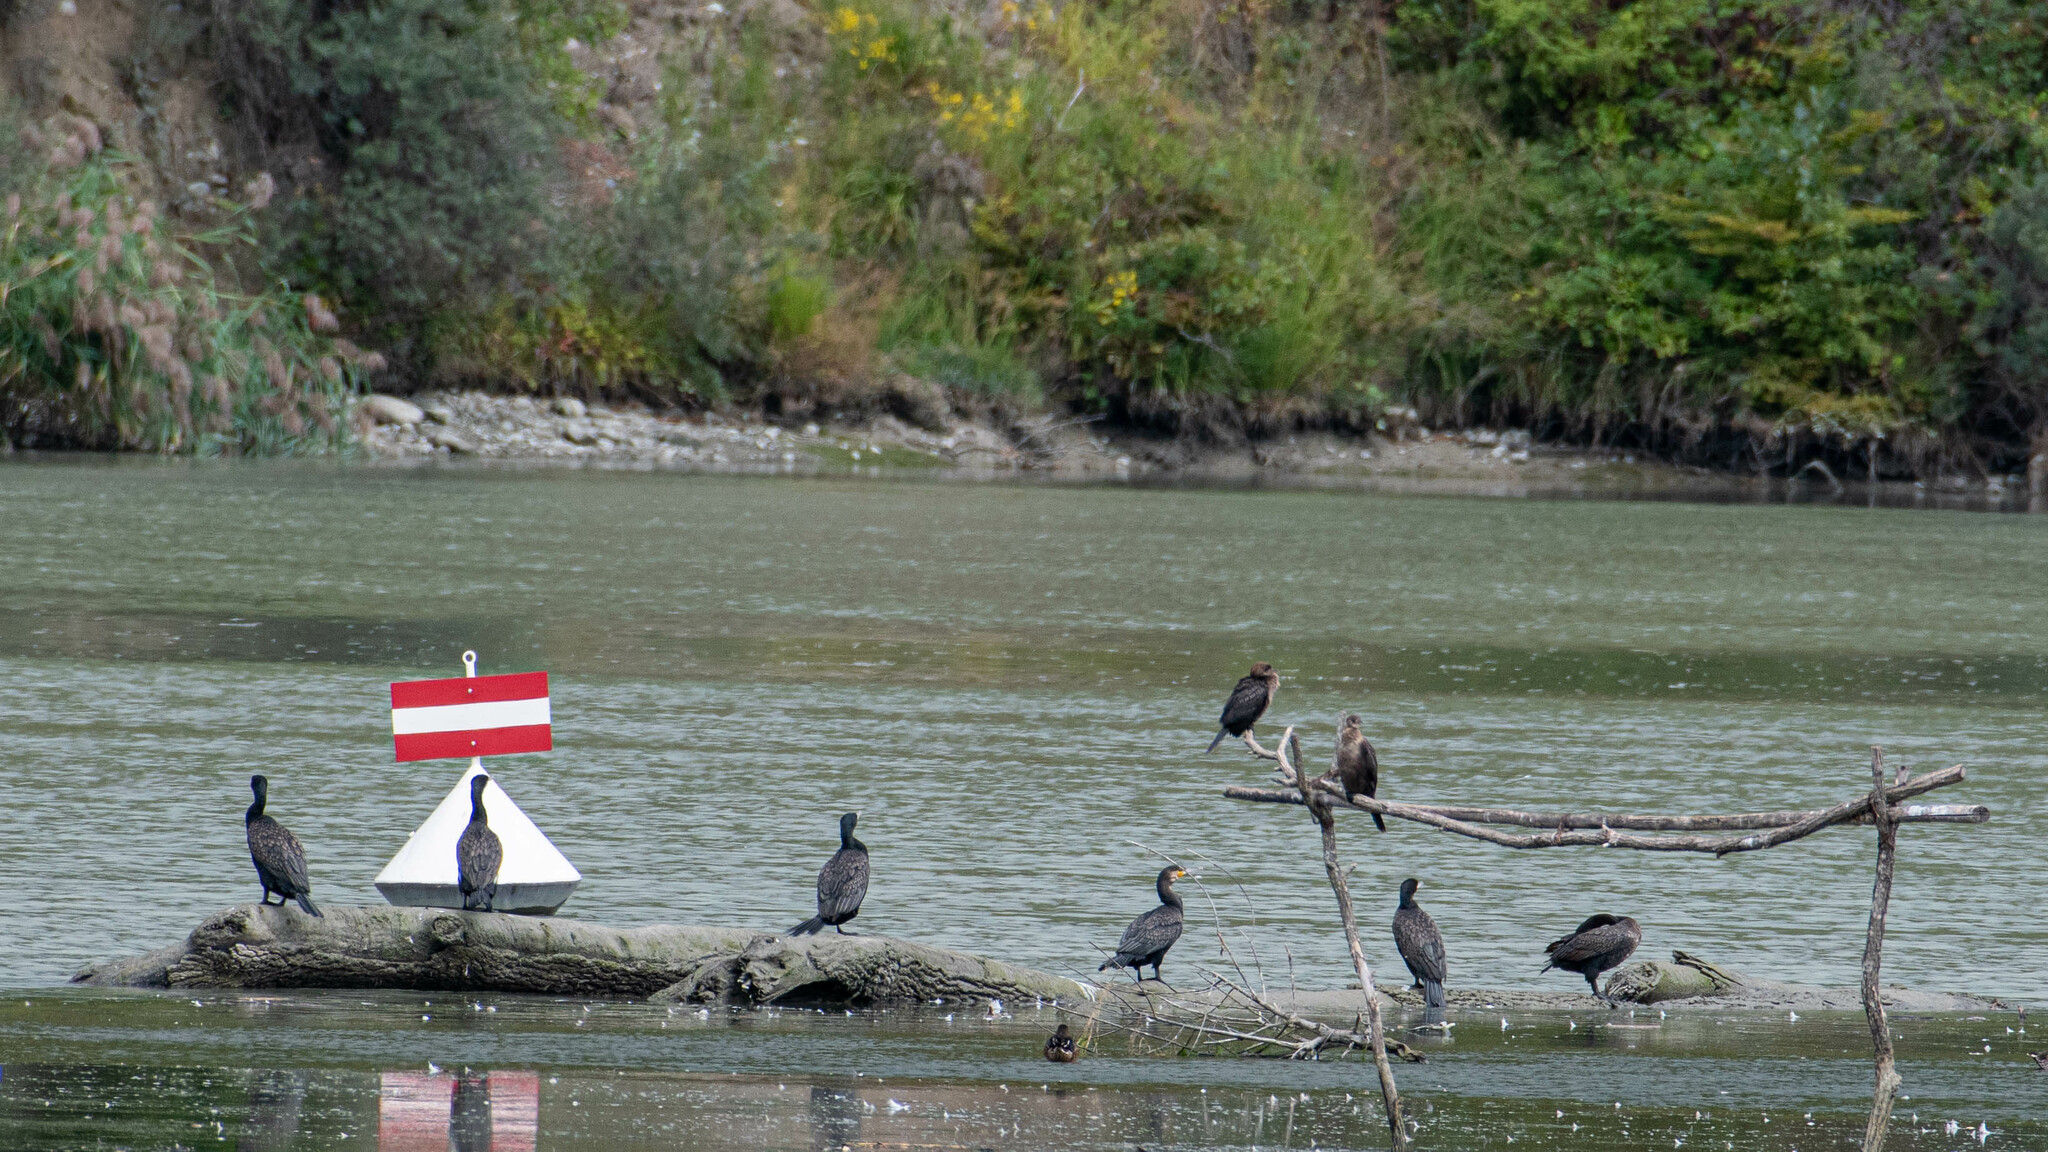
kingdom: Animalia
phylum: Chordata
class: Aves
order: Suliformes
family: Phalacrocoracidae
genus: Microcarbo
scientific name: Microcarbo pygmaeus
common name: Pygmy cormorant
